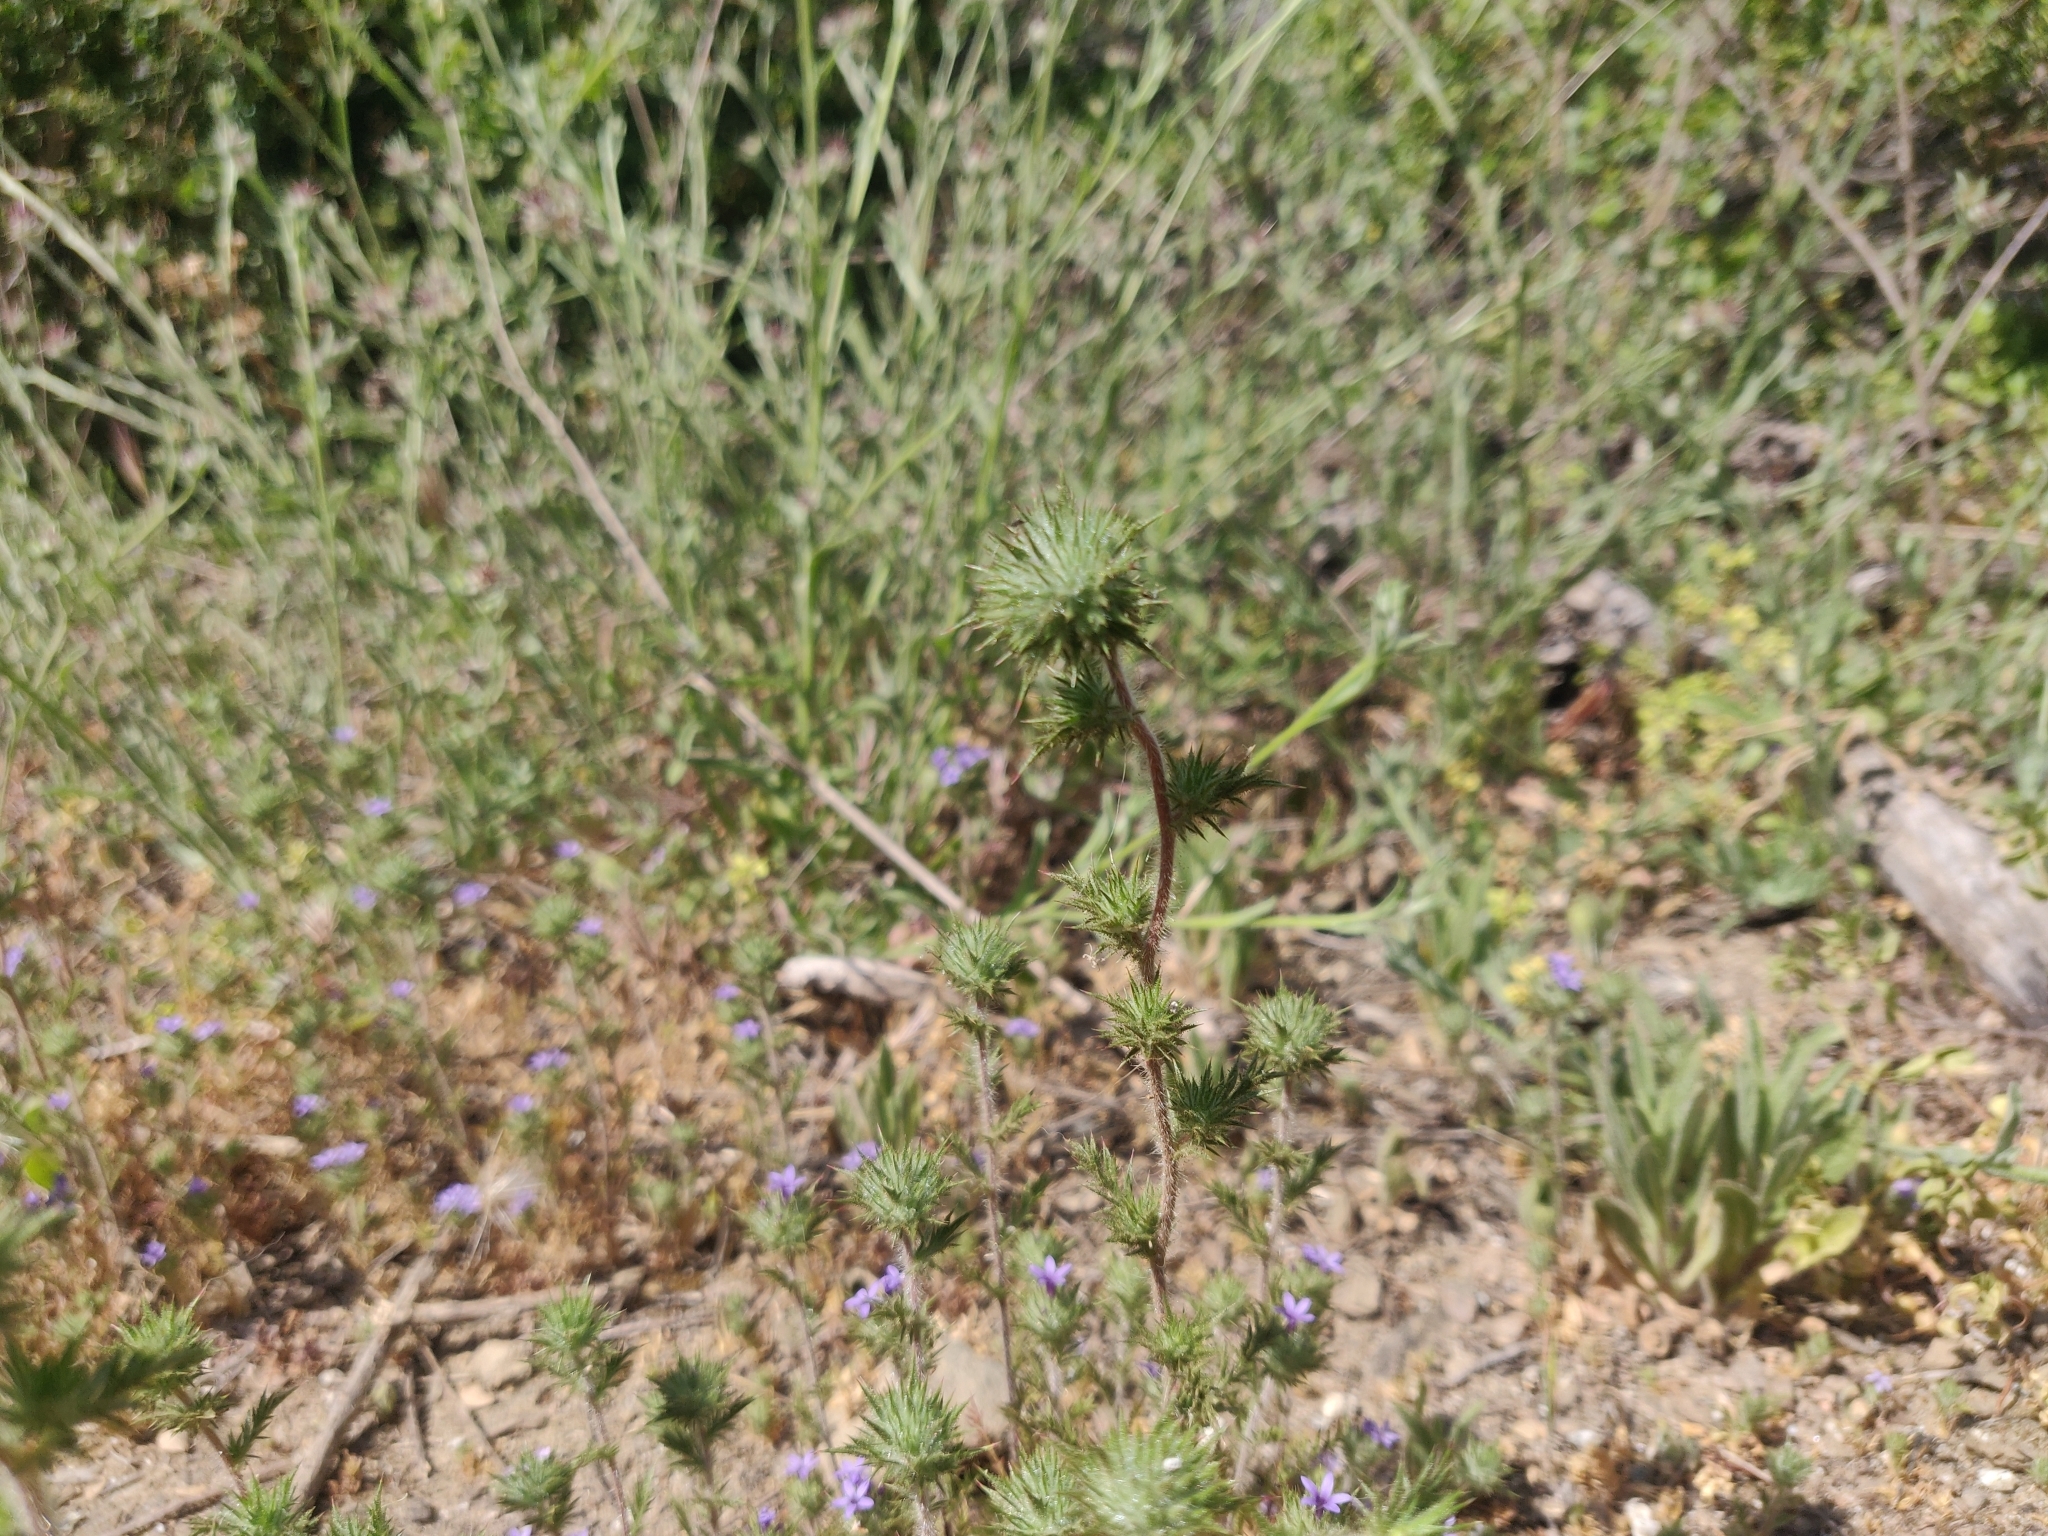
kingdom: Plantae
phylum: Tracheophyta
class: Magnoliopsida
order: Ericales
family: Polemoniaceae
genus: Navarretia
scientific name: Navarretia squarrosa
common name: Skunkweed
